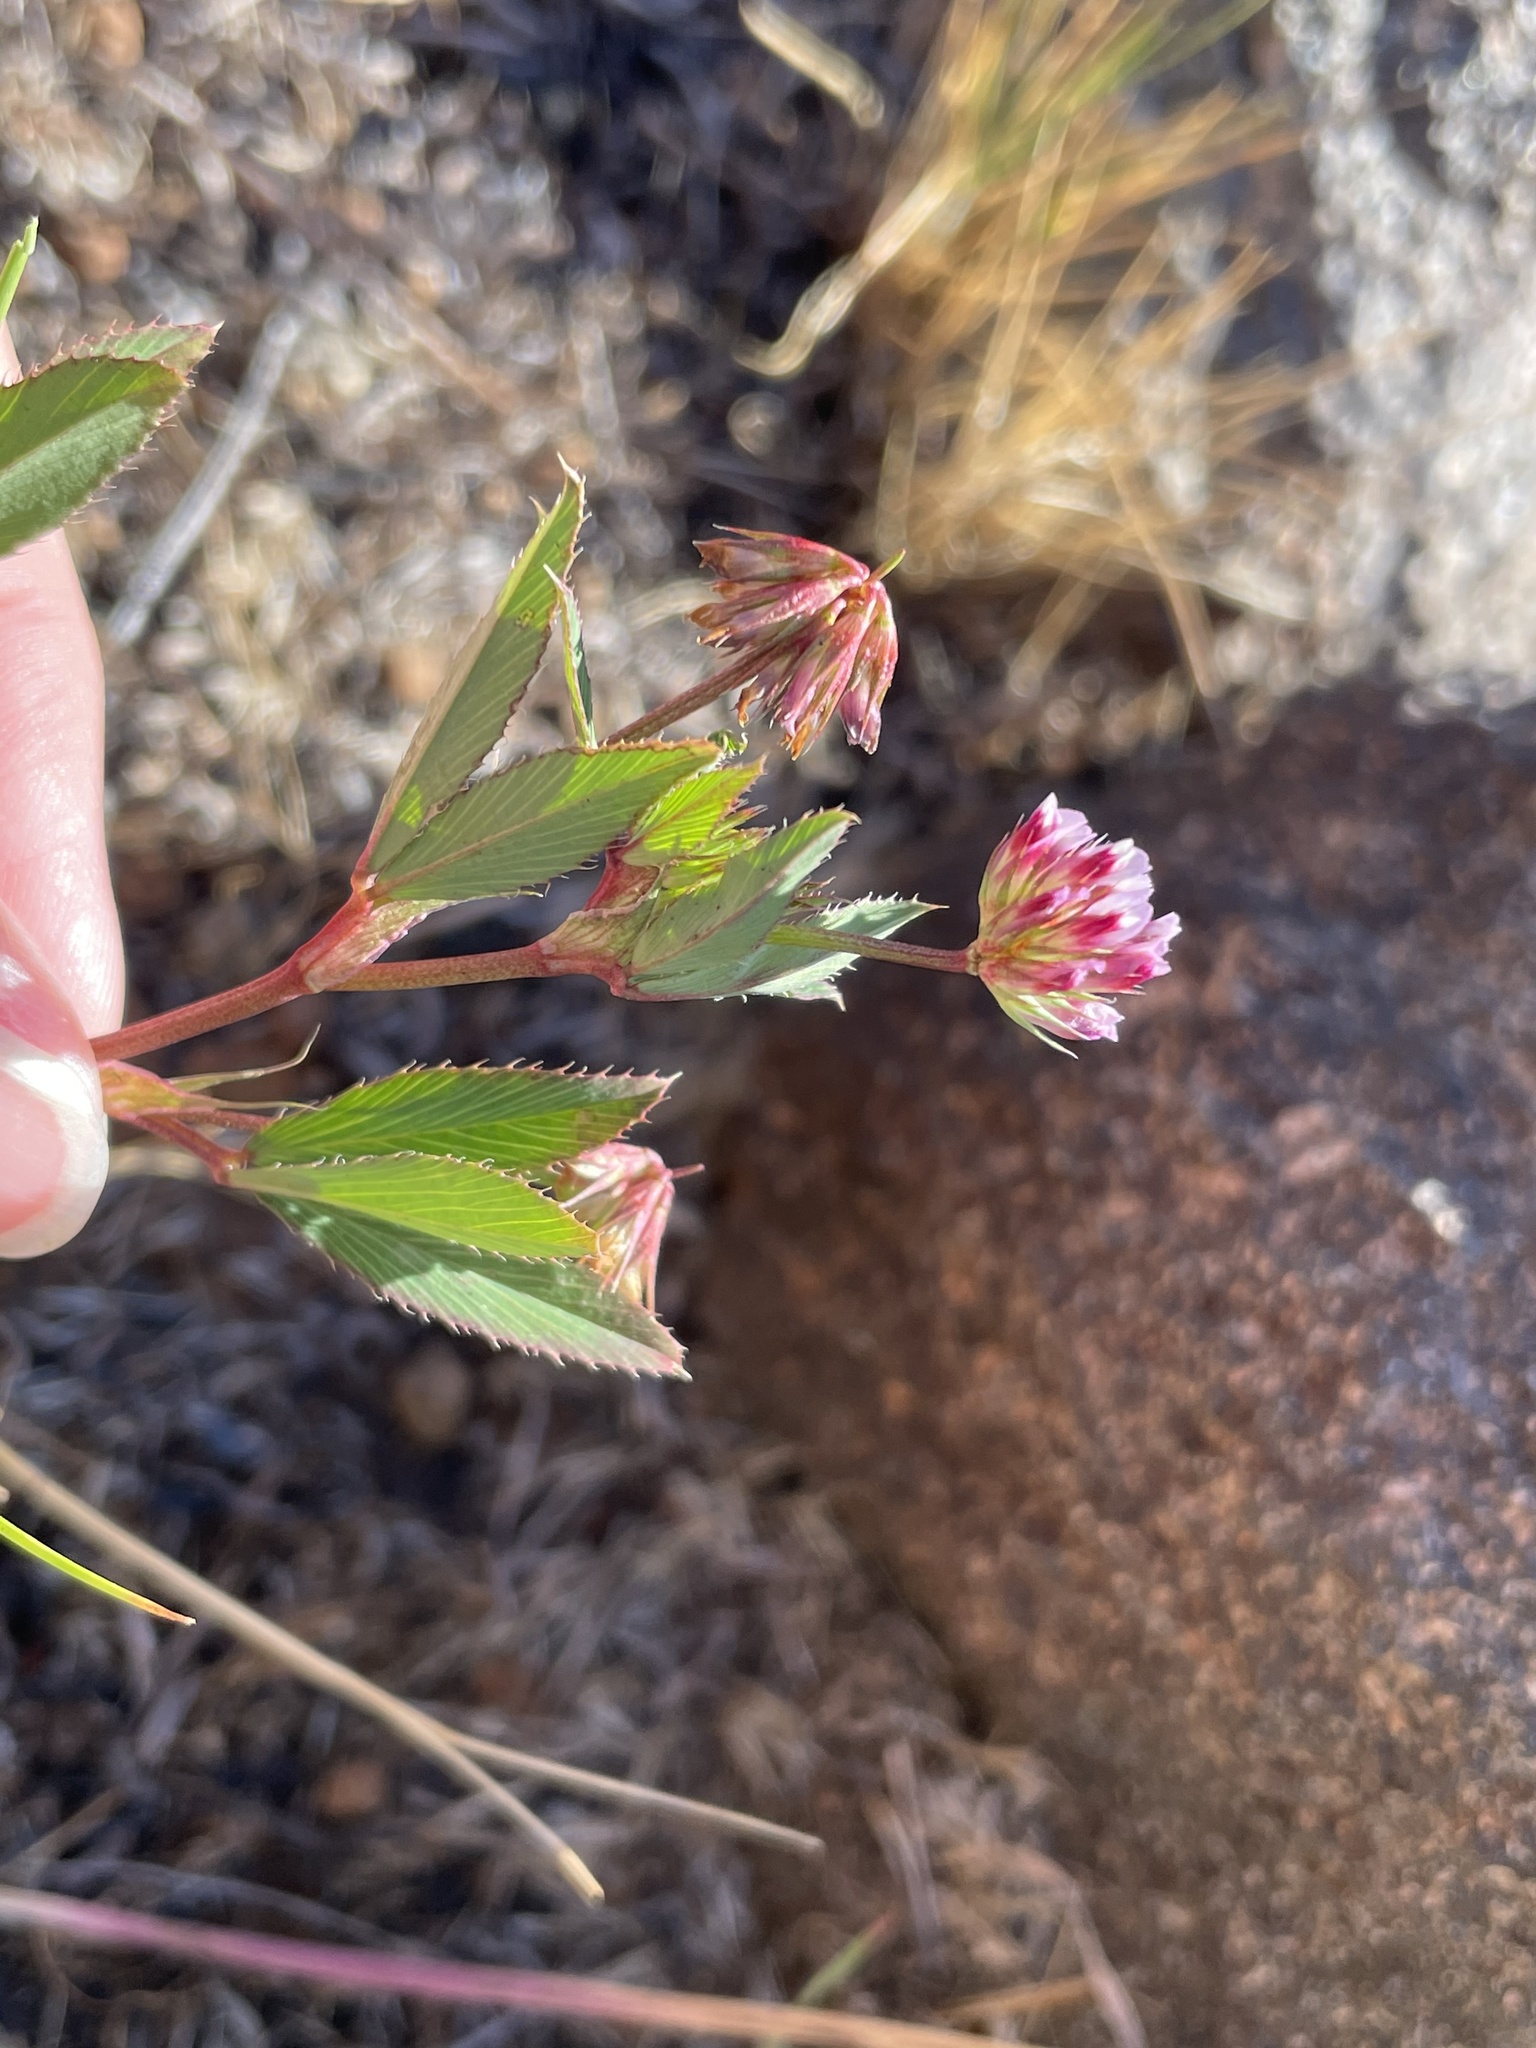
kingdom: Plantae
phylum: Tracheophyta
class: Magnoliopsida
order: Fabales
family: Fabaceae
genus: Trifolium
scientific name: Trifolium palmeri
